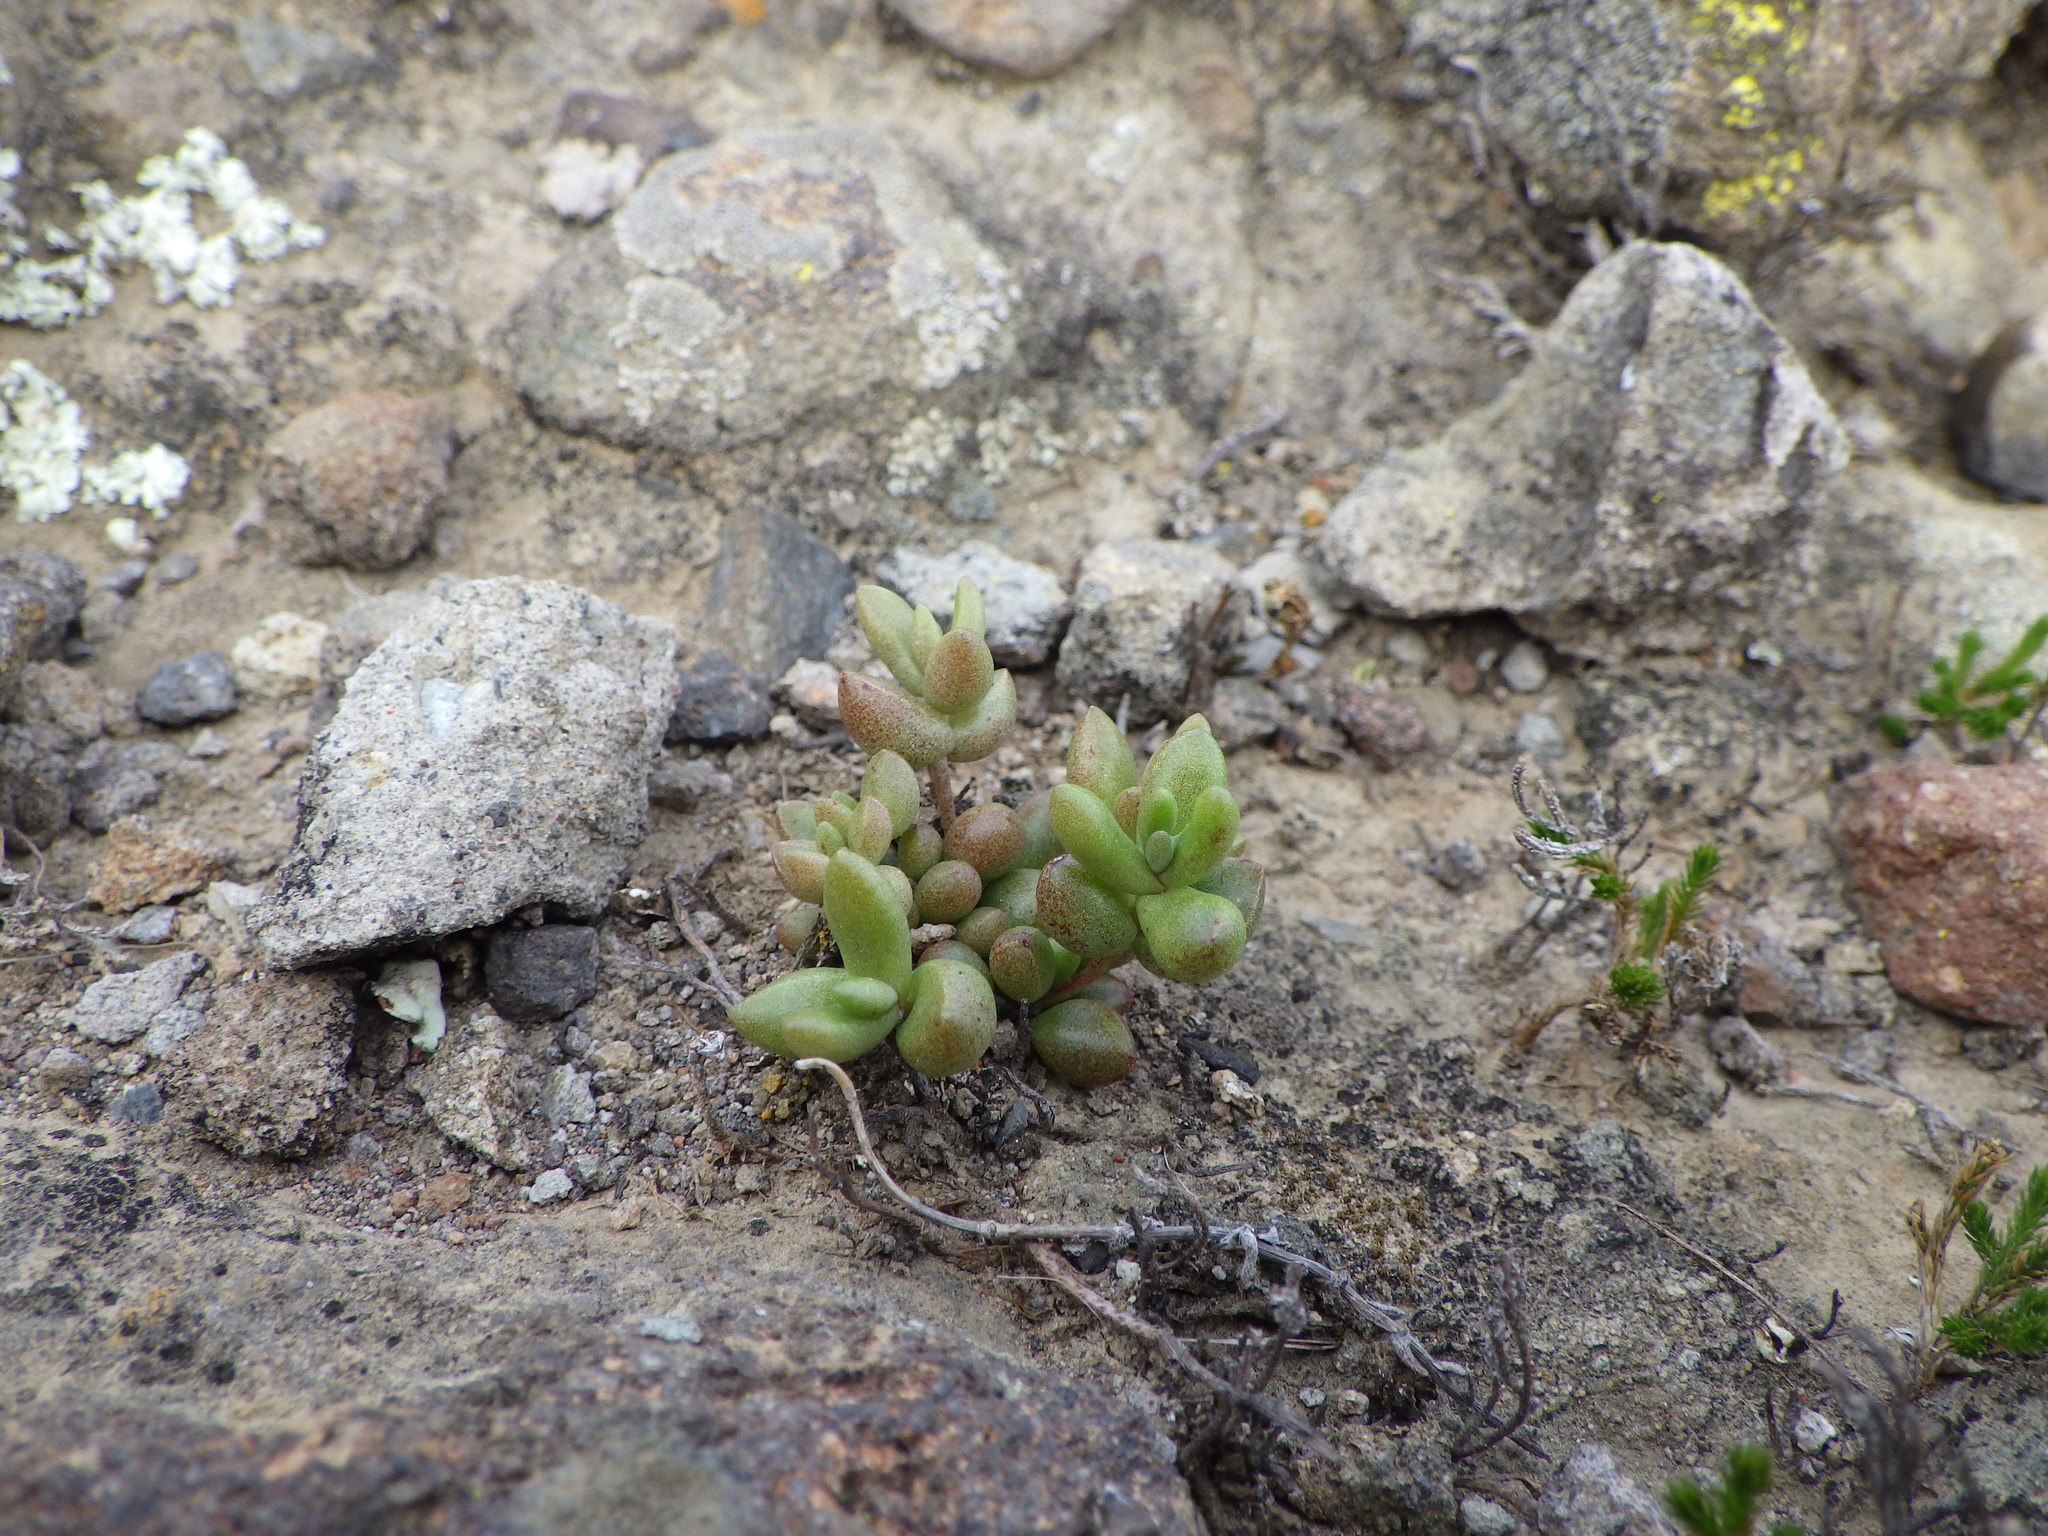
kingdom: Plantae
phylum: Tracheophyta
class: Magnoliopsida
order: Saxifragales
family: Crassulaceae
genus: Dudleya
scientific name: Dudleya blochmaniae
